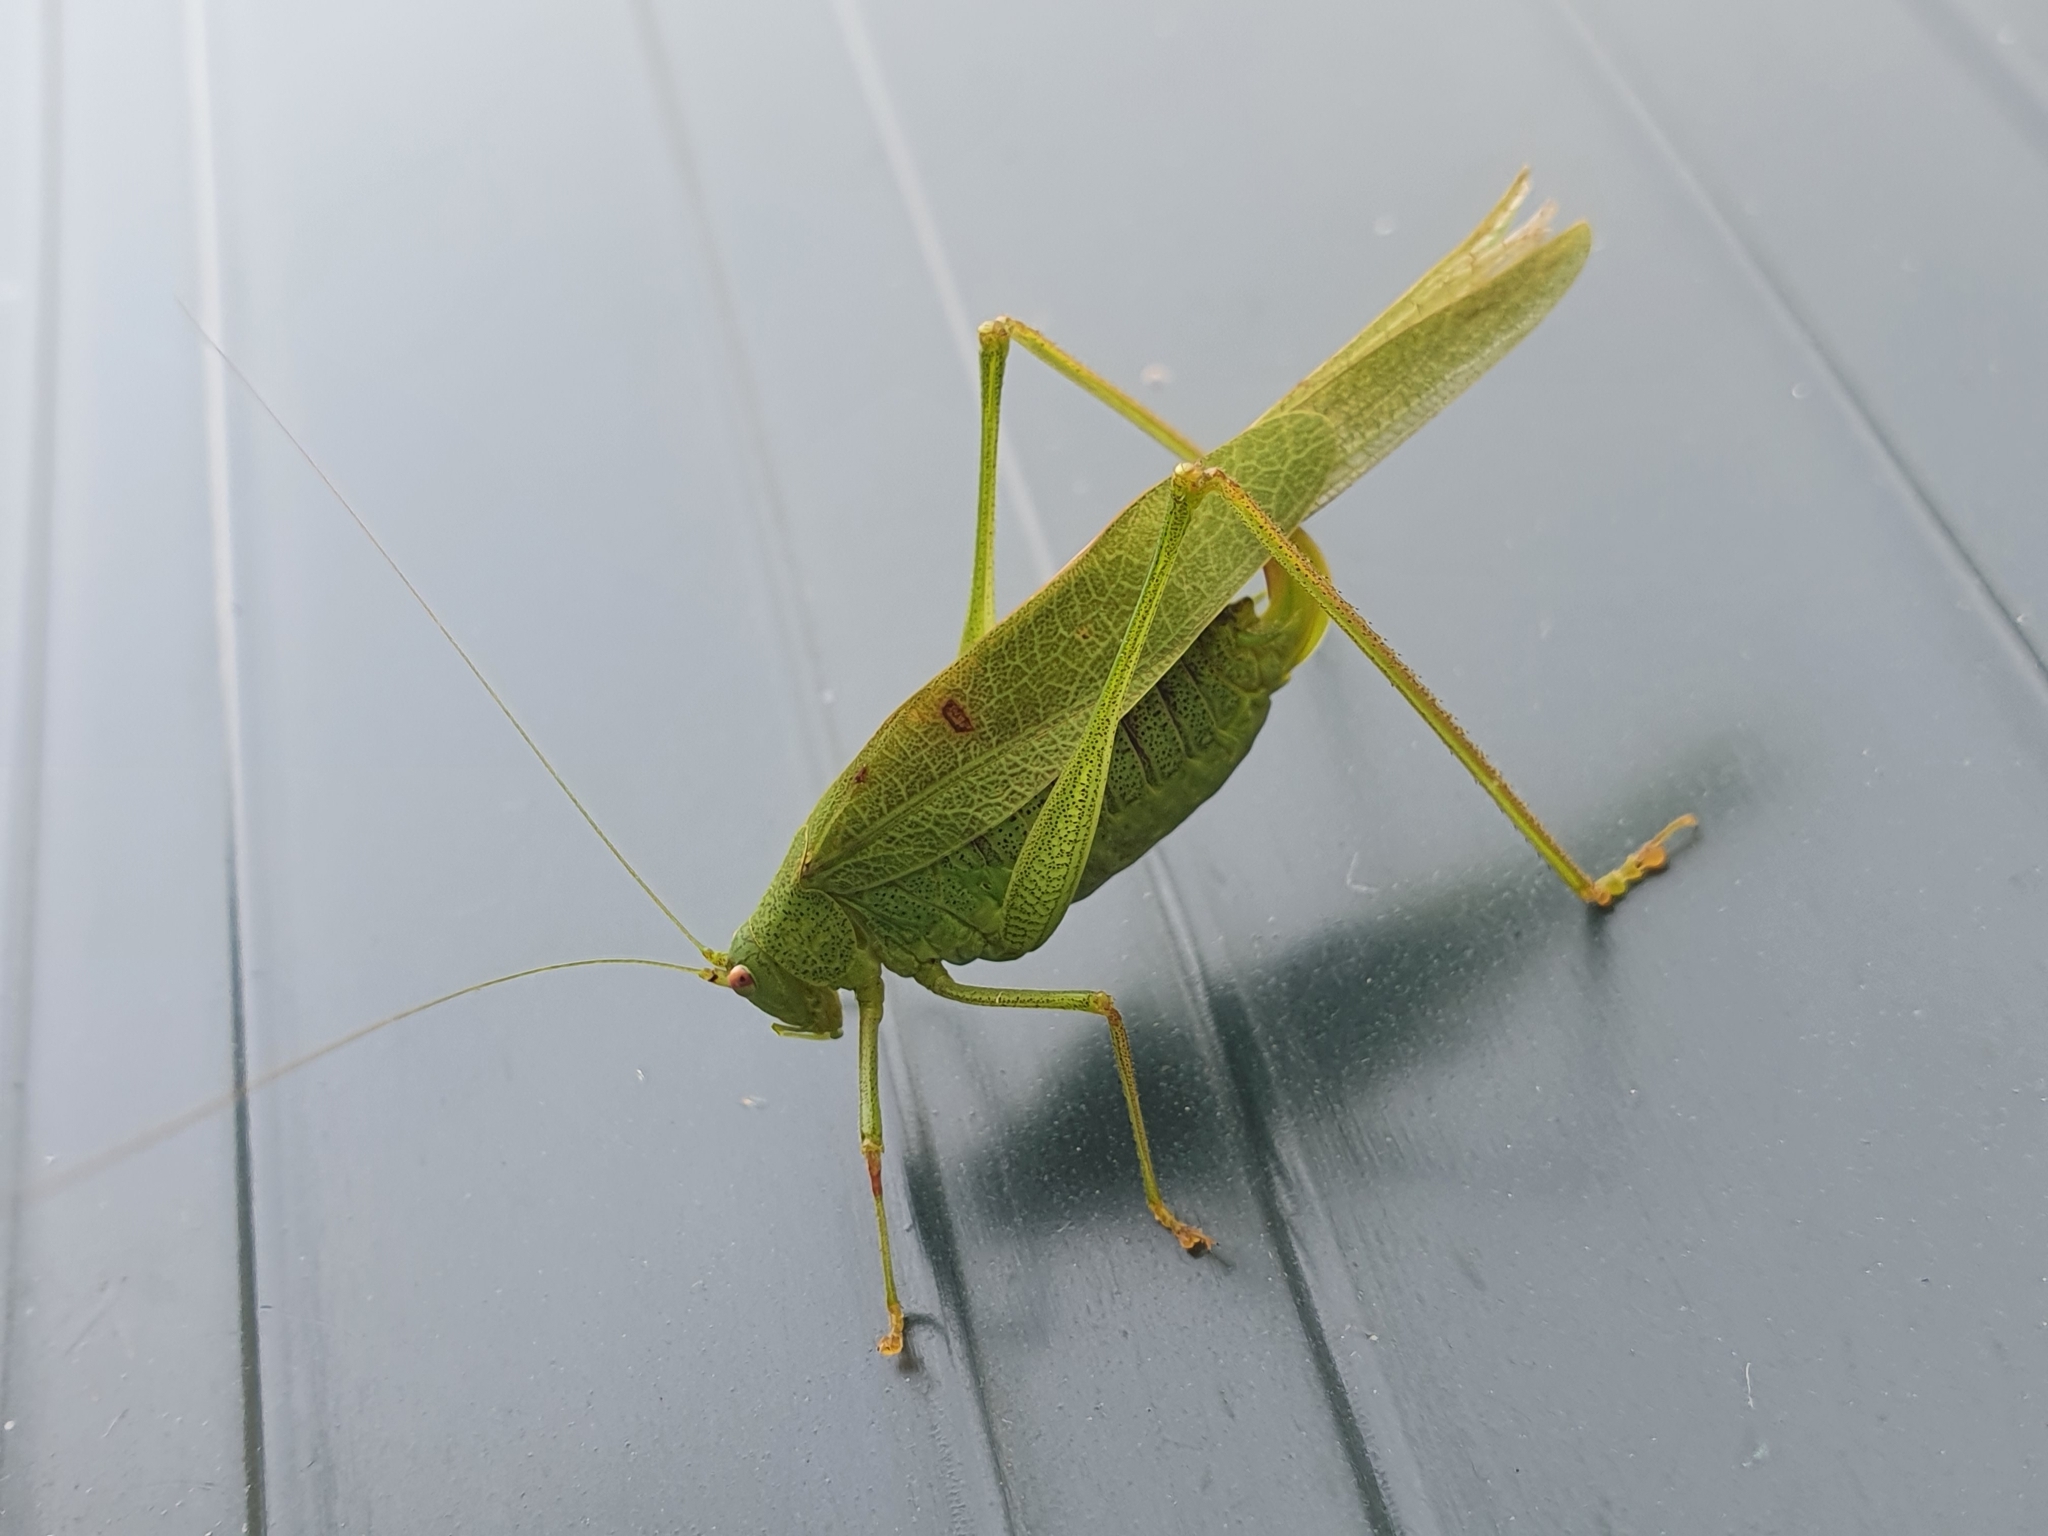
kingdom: Animalia
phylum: Arthropoda
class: Insecta
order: Orthoptera
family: Tettigoniidae
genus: Phaneroptera
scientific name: Phaneroptera nana
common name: Southern sickle bush-cricket
